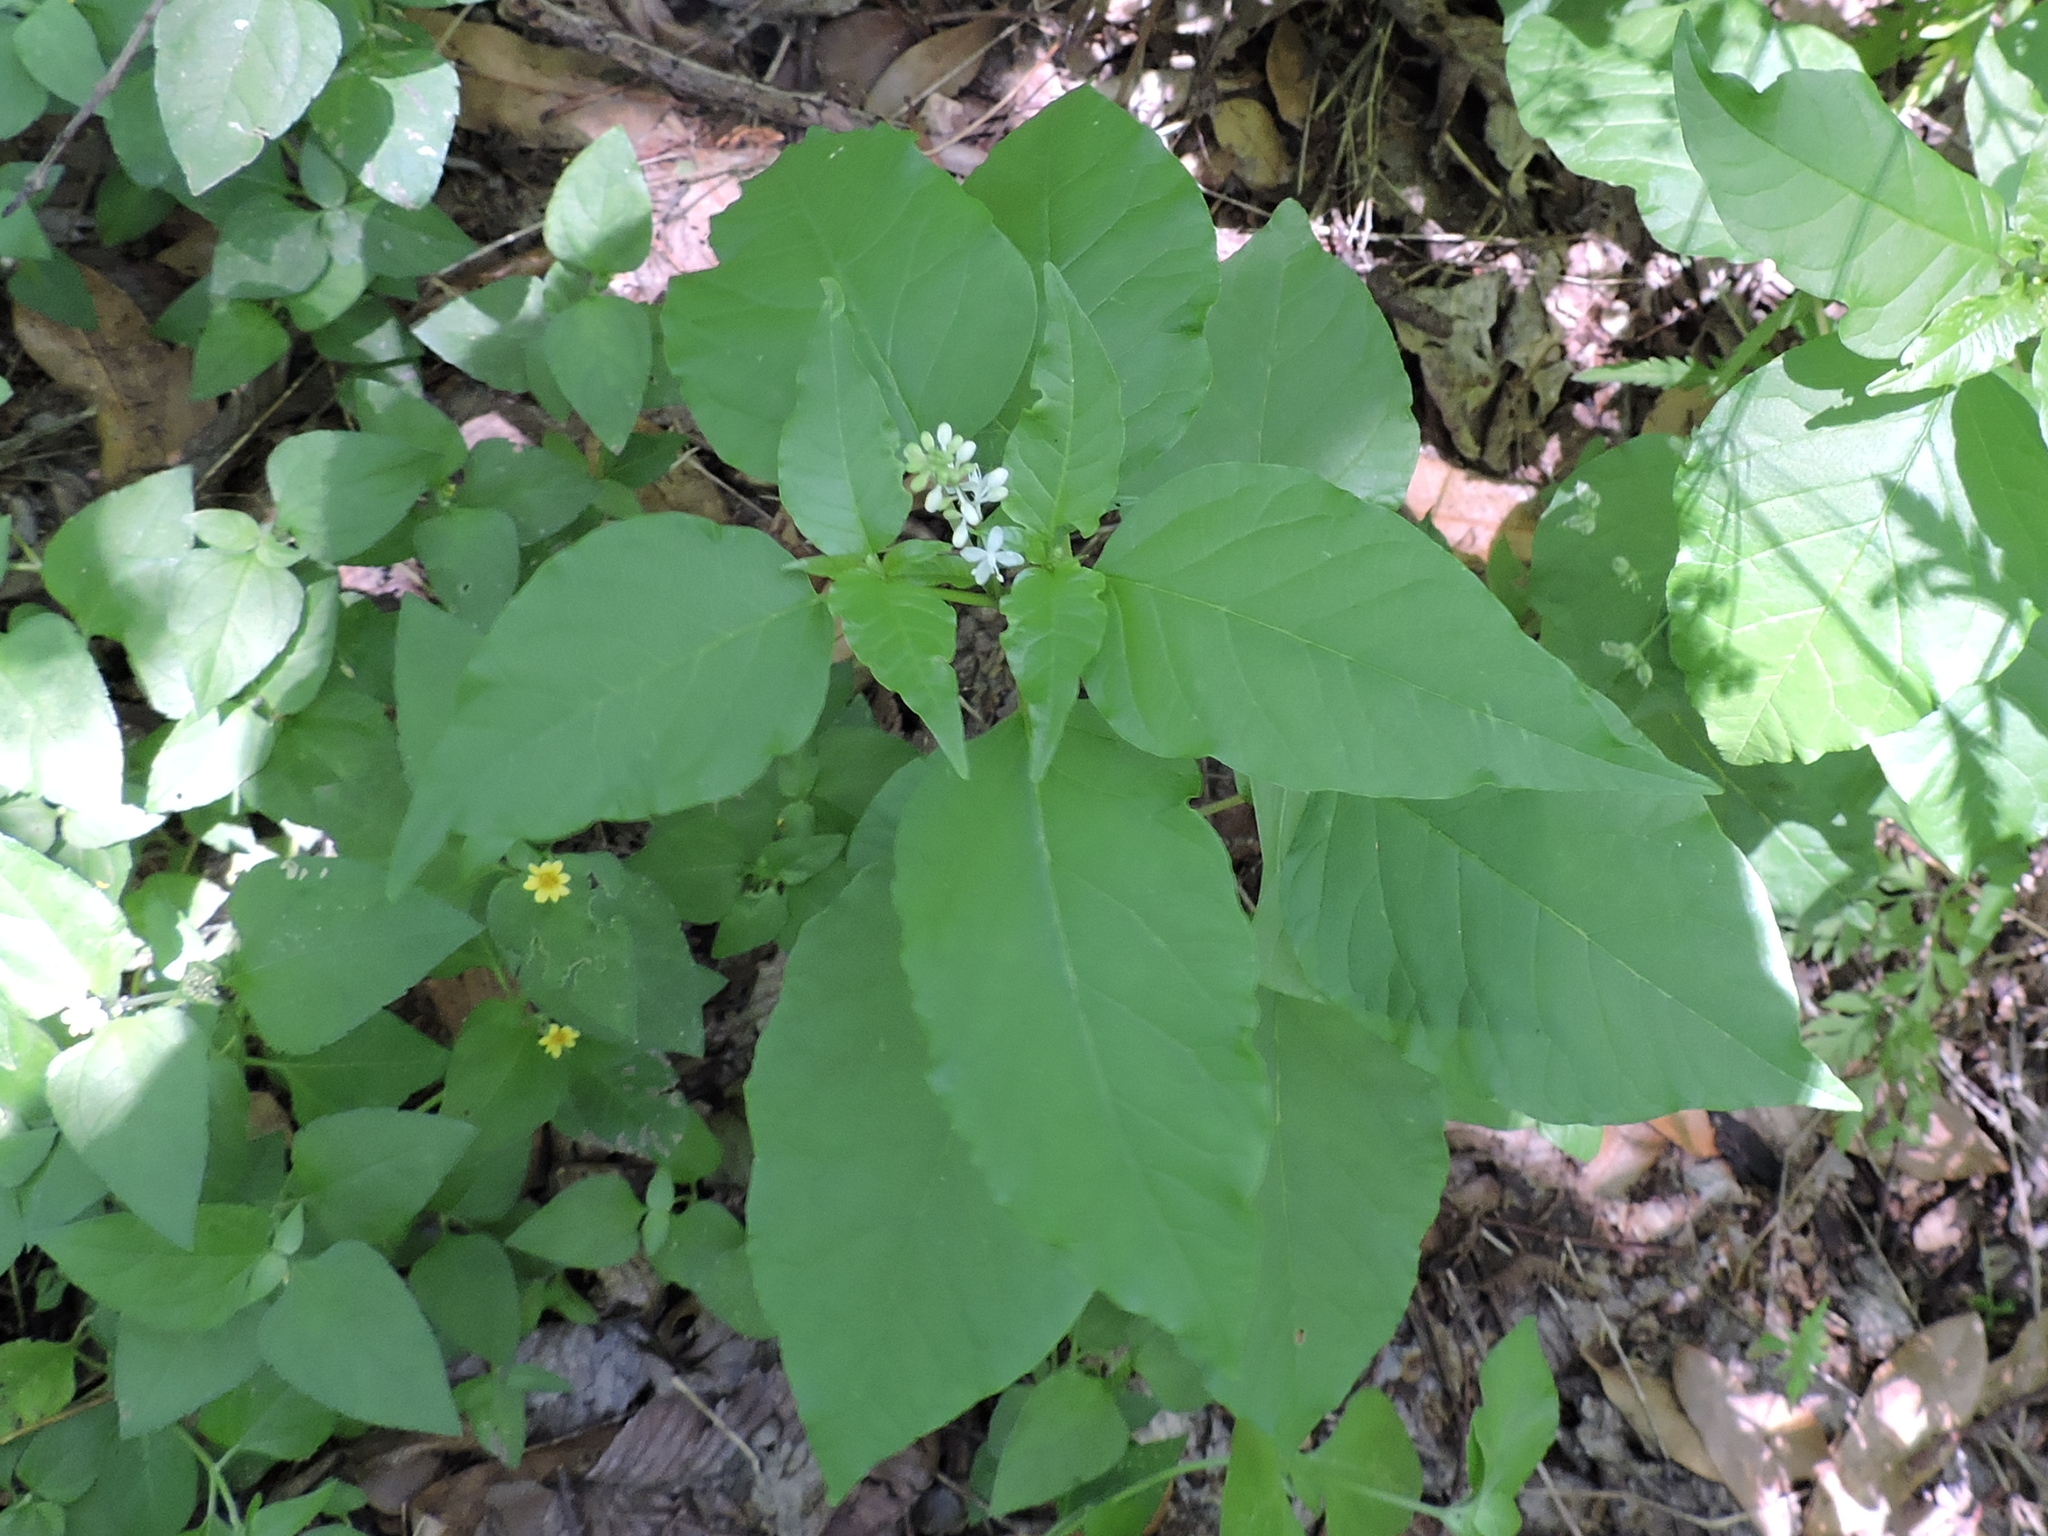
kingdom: Plantae
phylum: Tracheophyta
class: Magnoliopsida
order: Caryophyllales
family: Phytolaccaceae
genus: Rivina
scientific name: Rivina humilis
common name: Rougeplant
